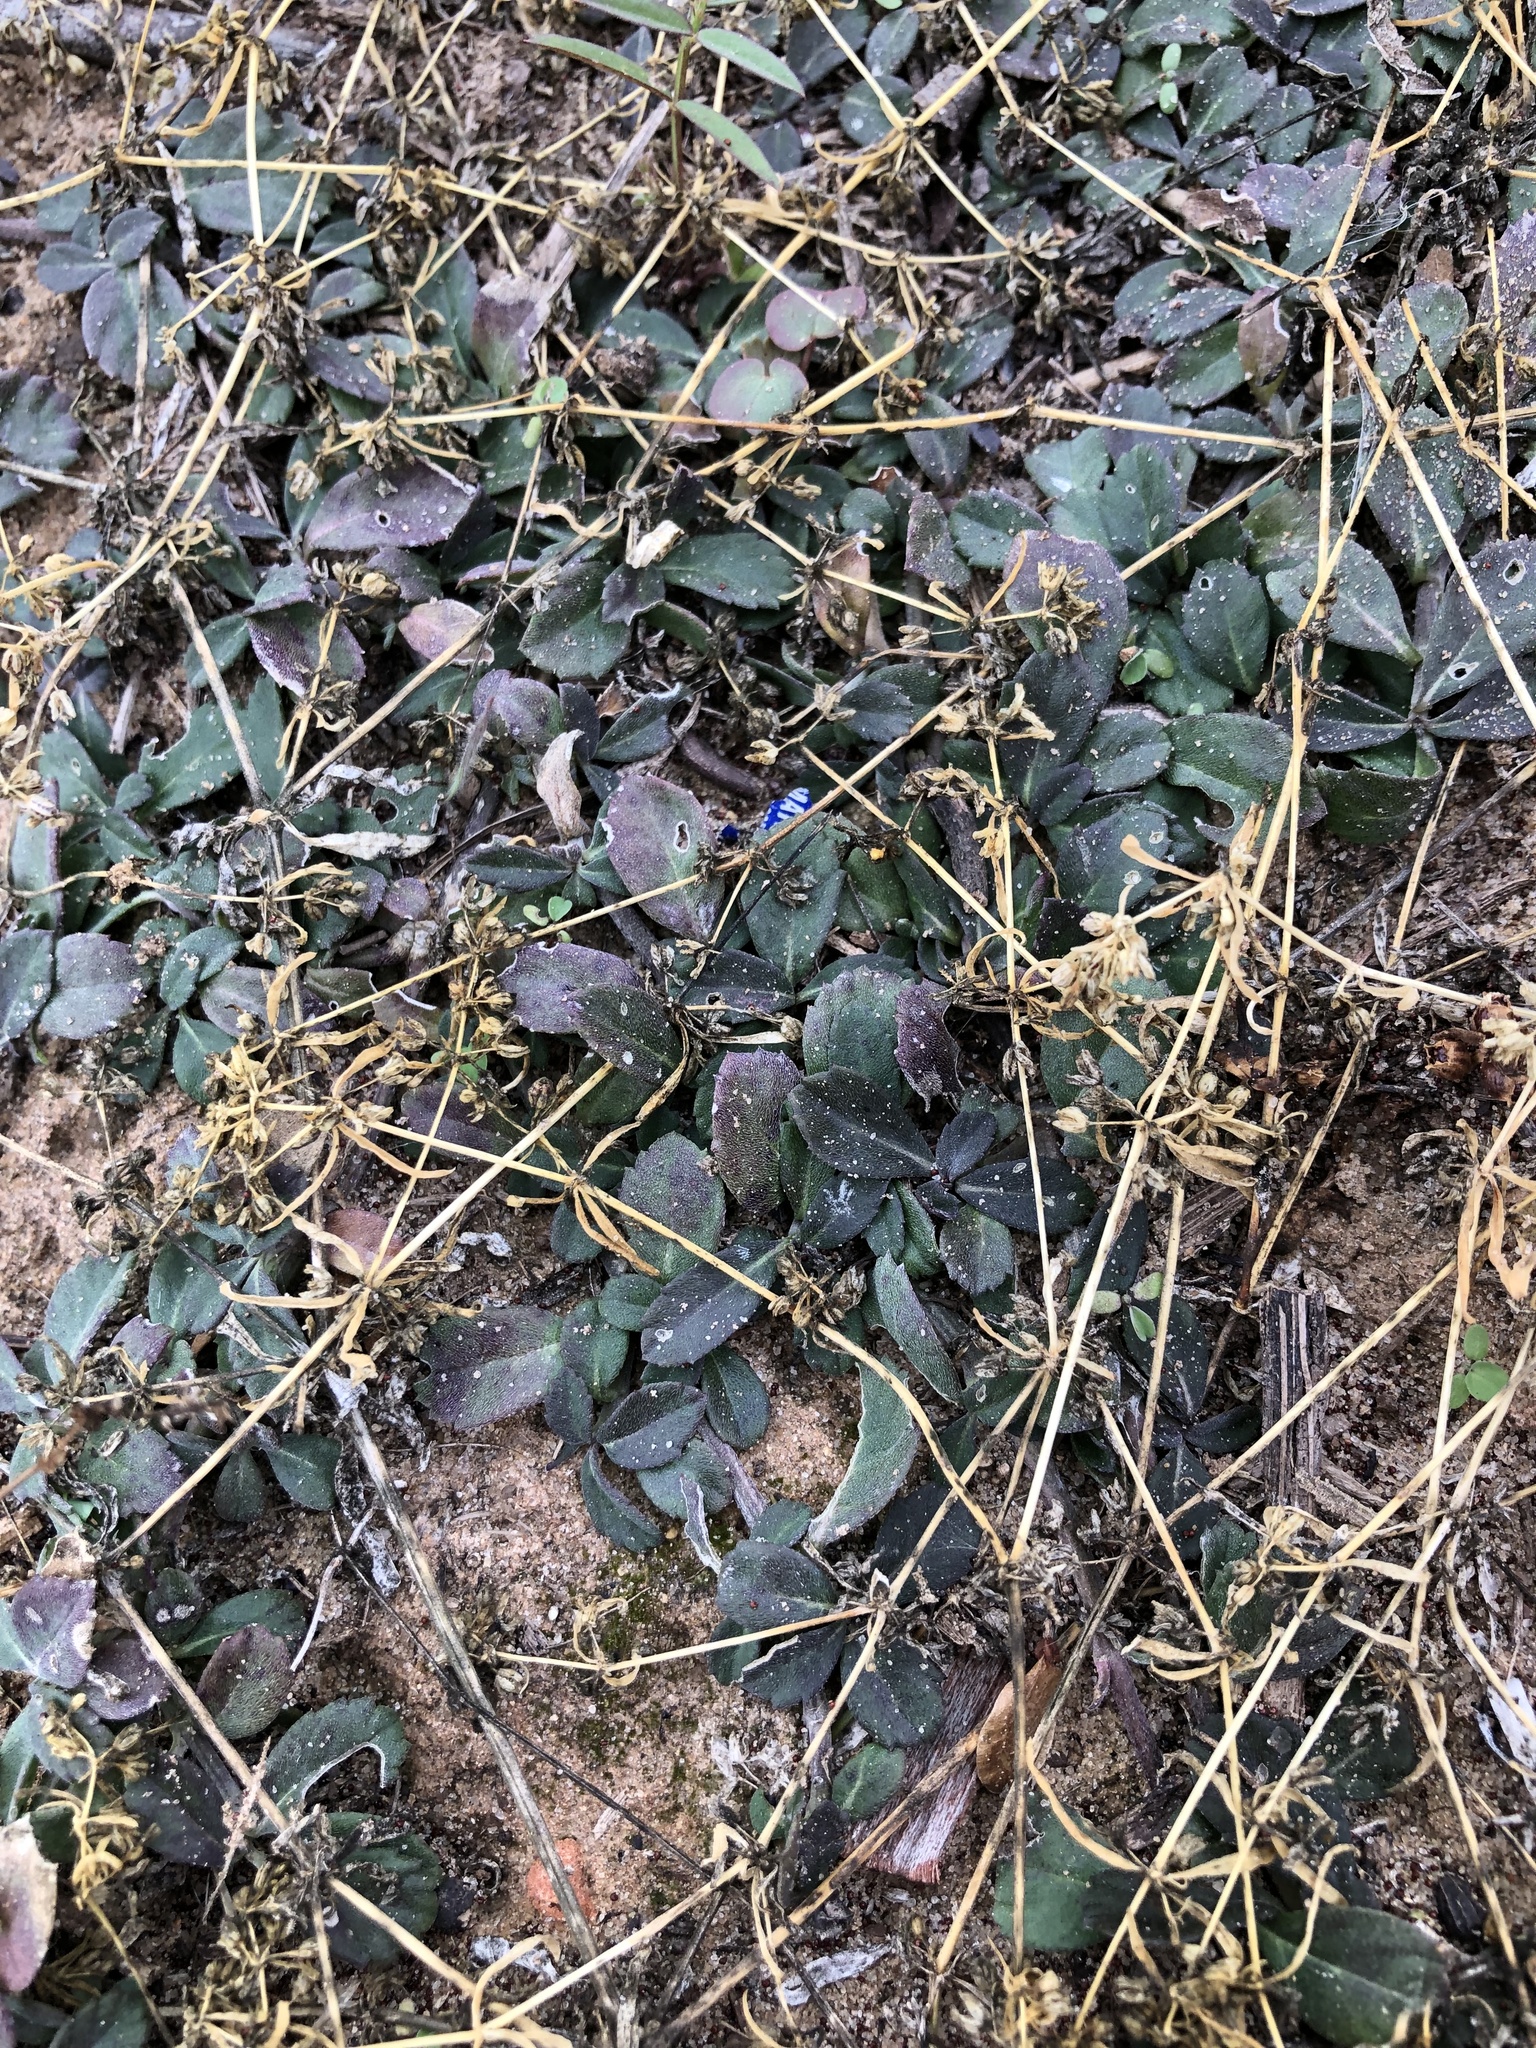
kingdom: Plantae
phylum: Tracheophyta
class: Magnoliopsida
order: Lamiales
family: Verbenaceae
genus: Phyla
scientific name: Phyla nodiflora
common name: Frogfruit
